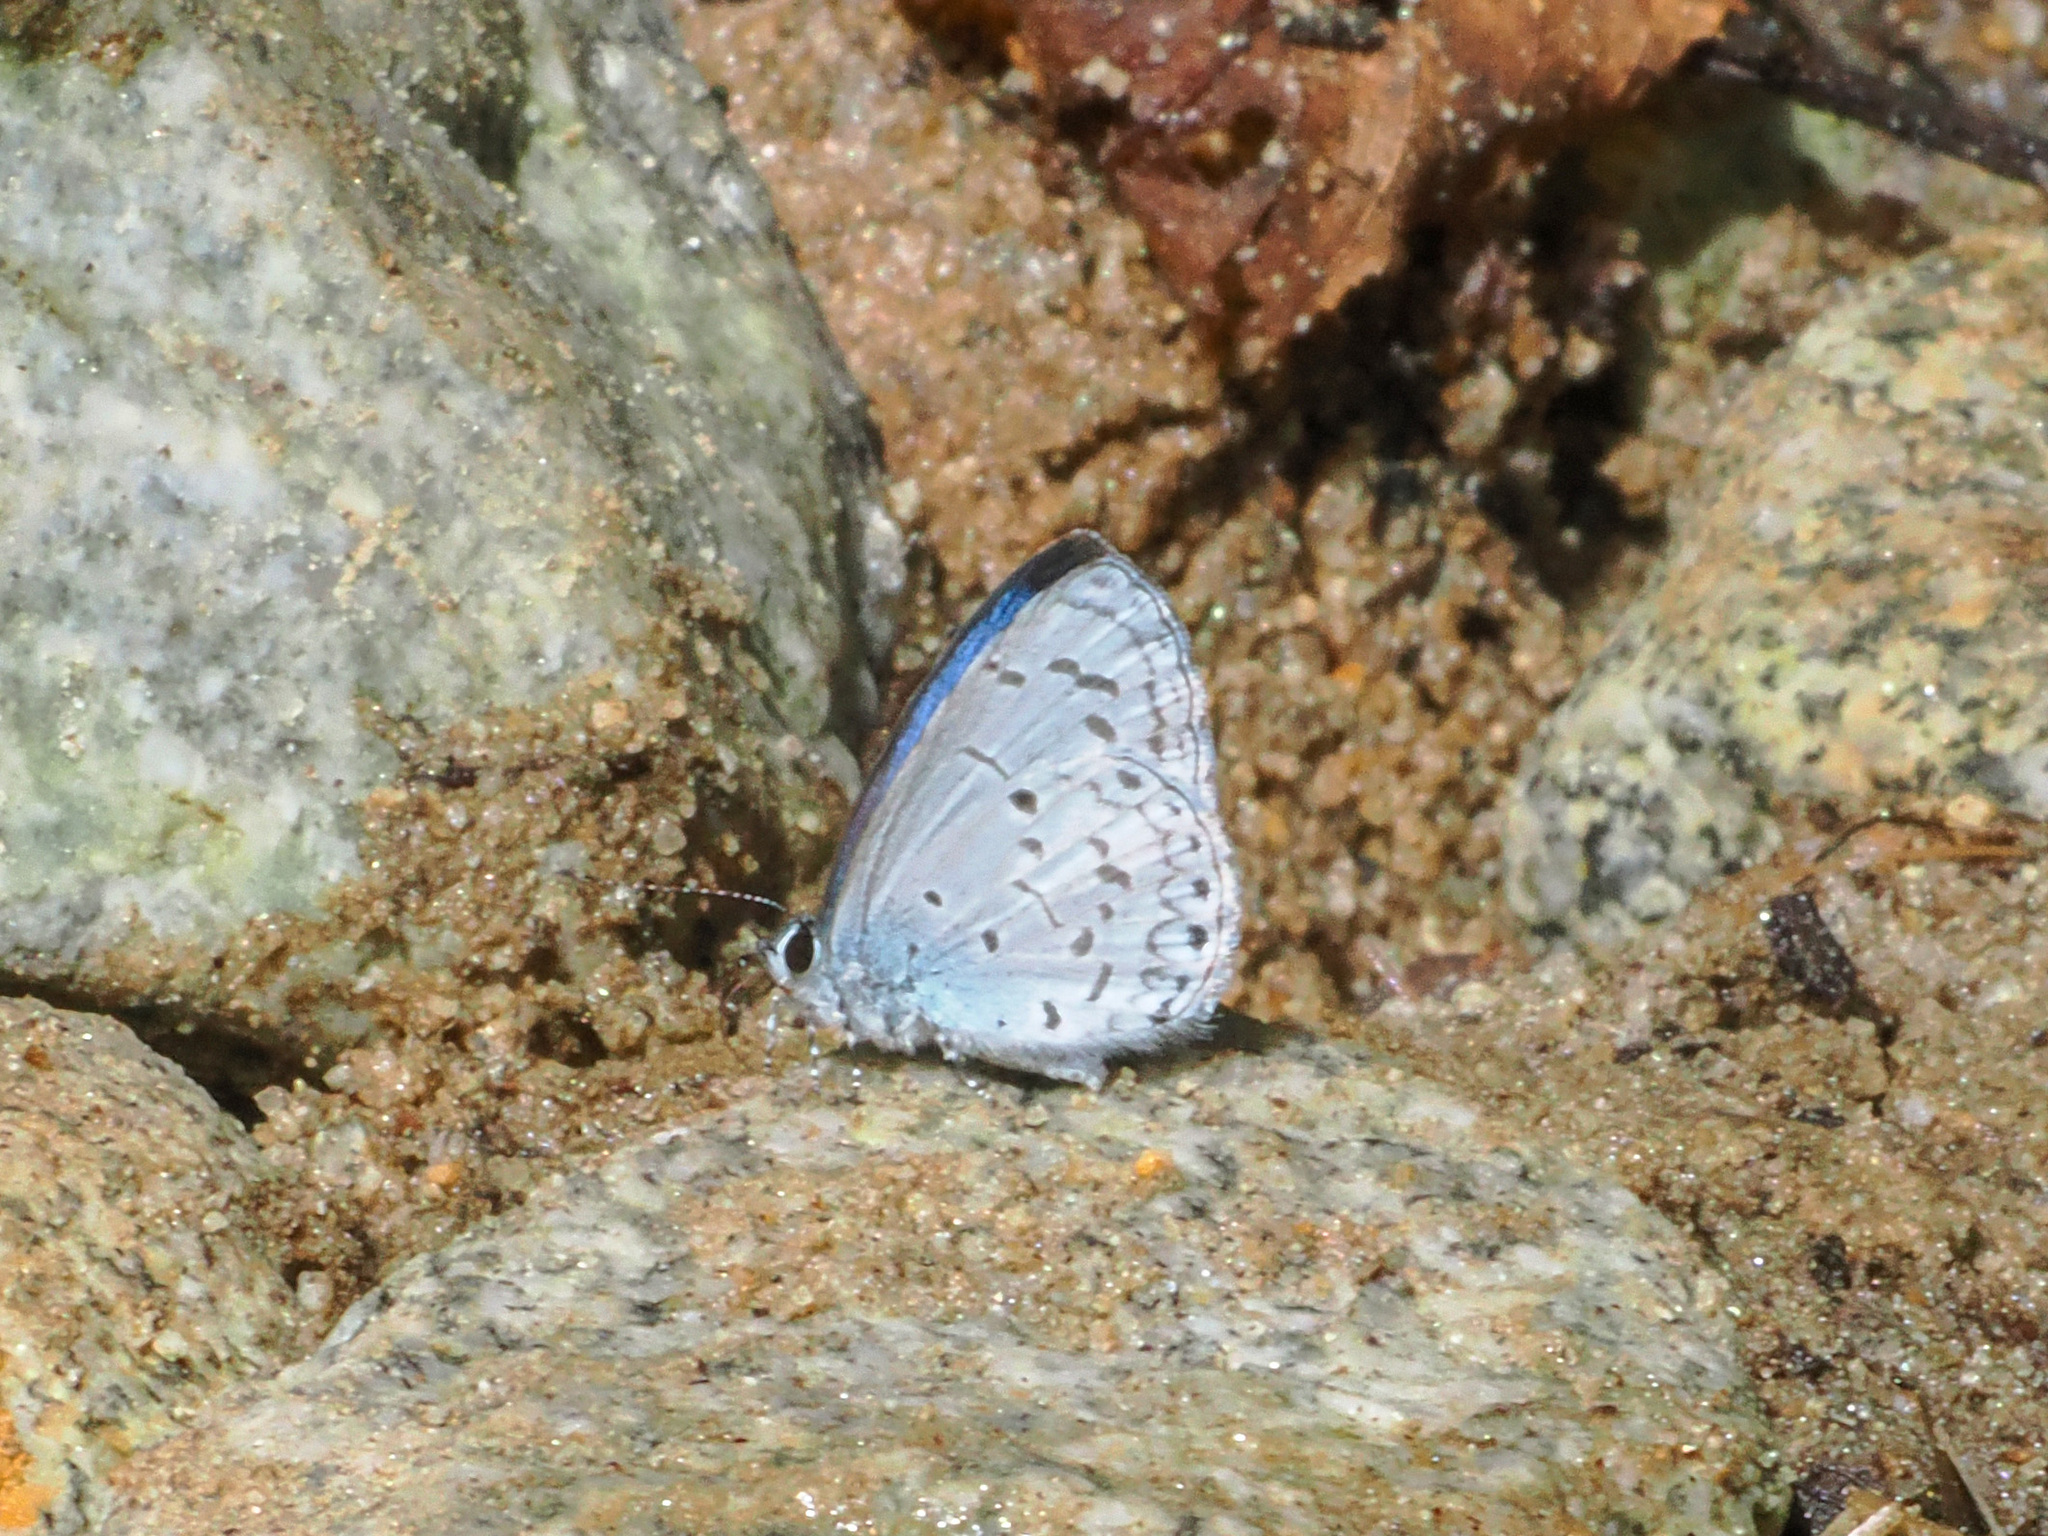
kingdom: Animalia
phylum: Arthropoda
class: Insecta
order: Lepidoptera
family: Lycaenidae
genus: Acytolepis
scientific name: Acytolepis
